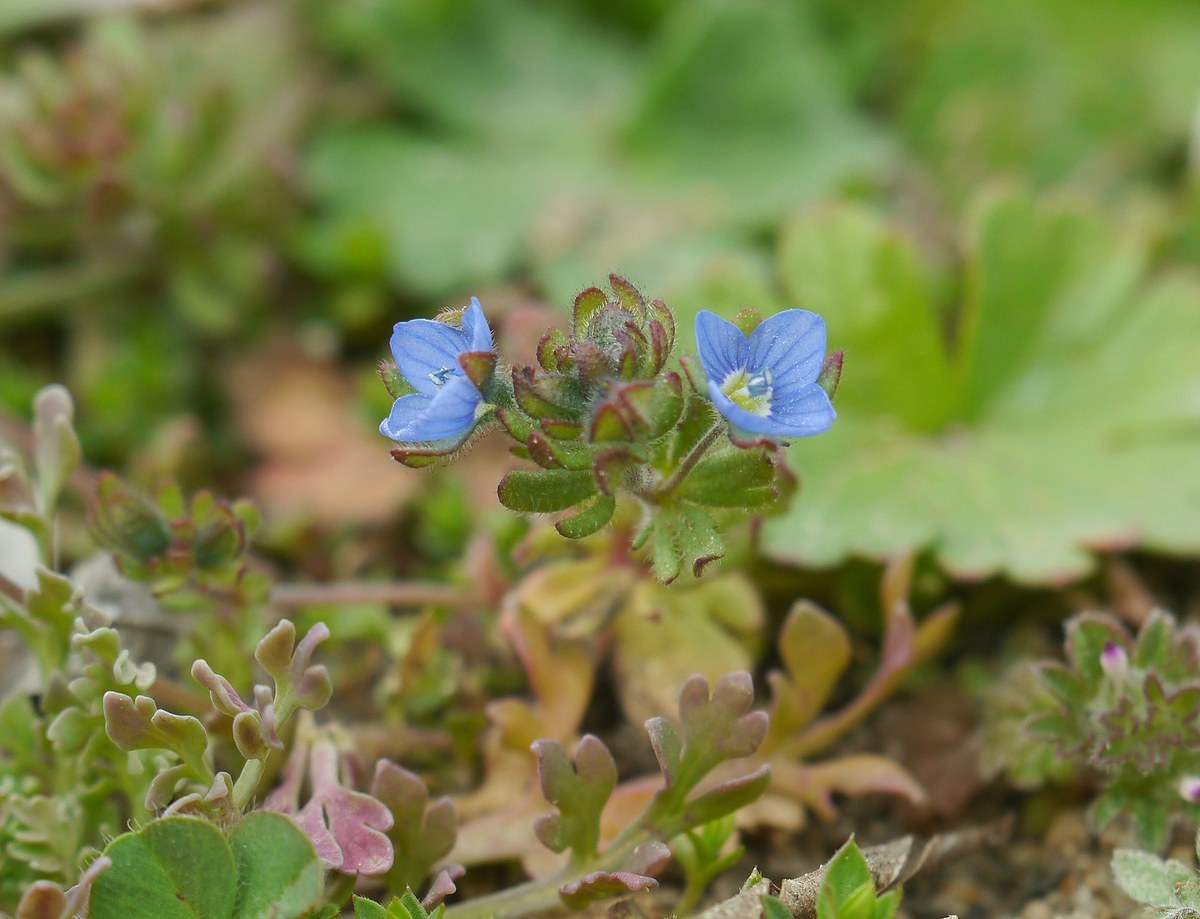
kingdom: Plantae
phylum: Tracheophyta
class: Magnoliopsida
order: Lamiales
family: Plantaginaceae
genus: Veronica
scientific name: Veronica triphyllos
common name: Fingered speedwell
